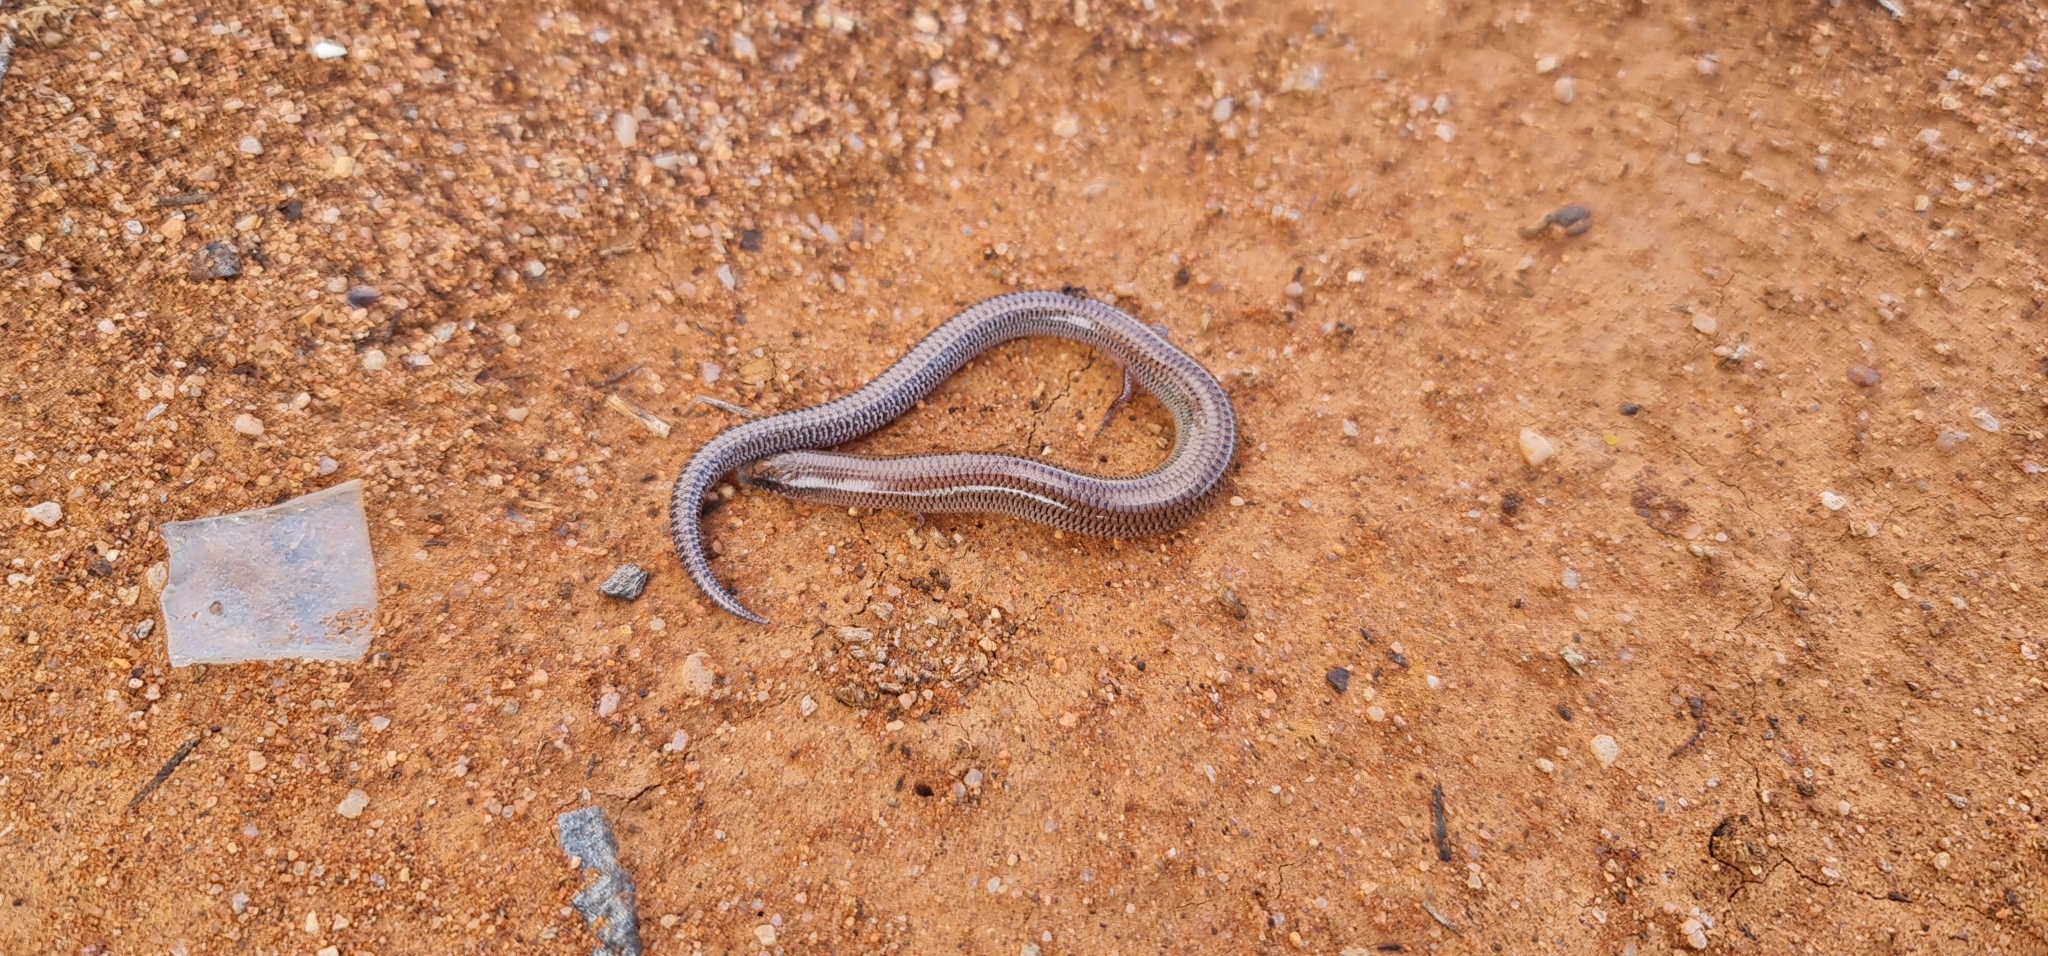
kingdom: Animalia
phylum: Chordata
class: Squamata
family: Scincidae
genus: Lerista
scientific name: Lerista punctatovittata
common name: Eastern robust slider
